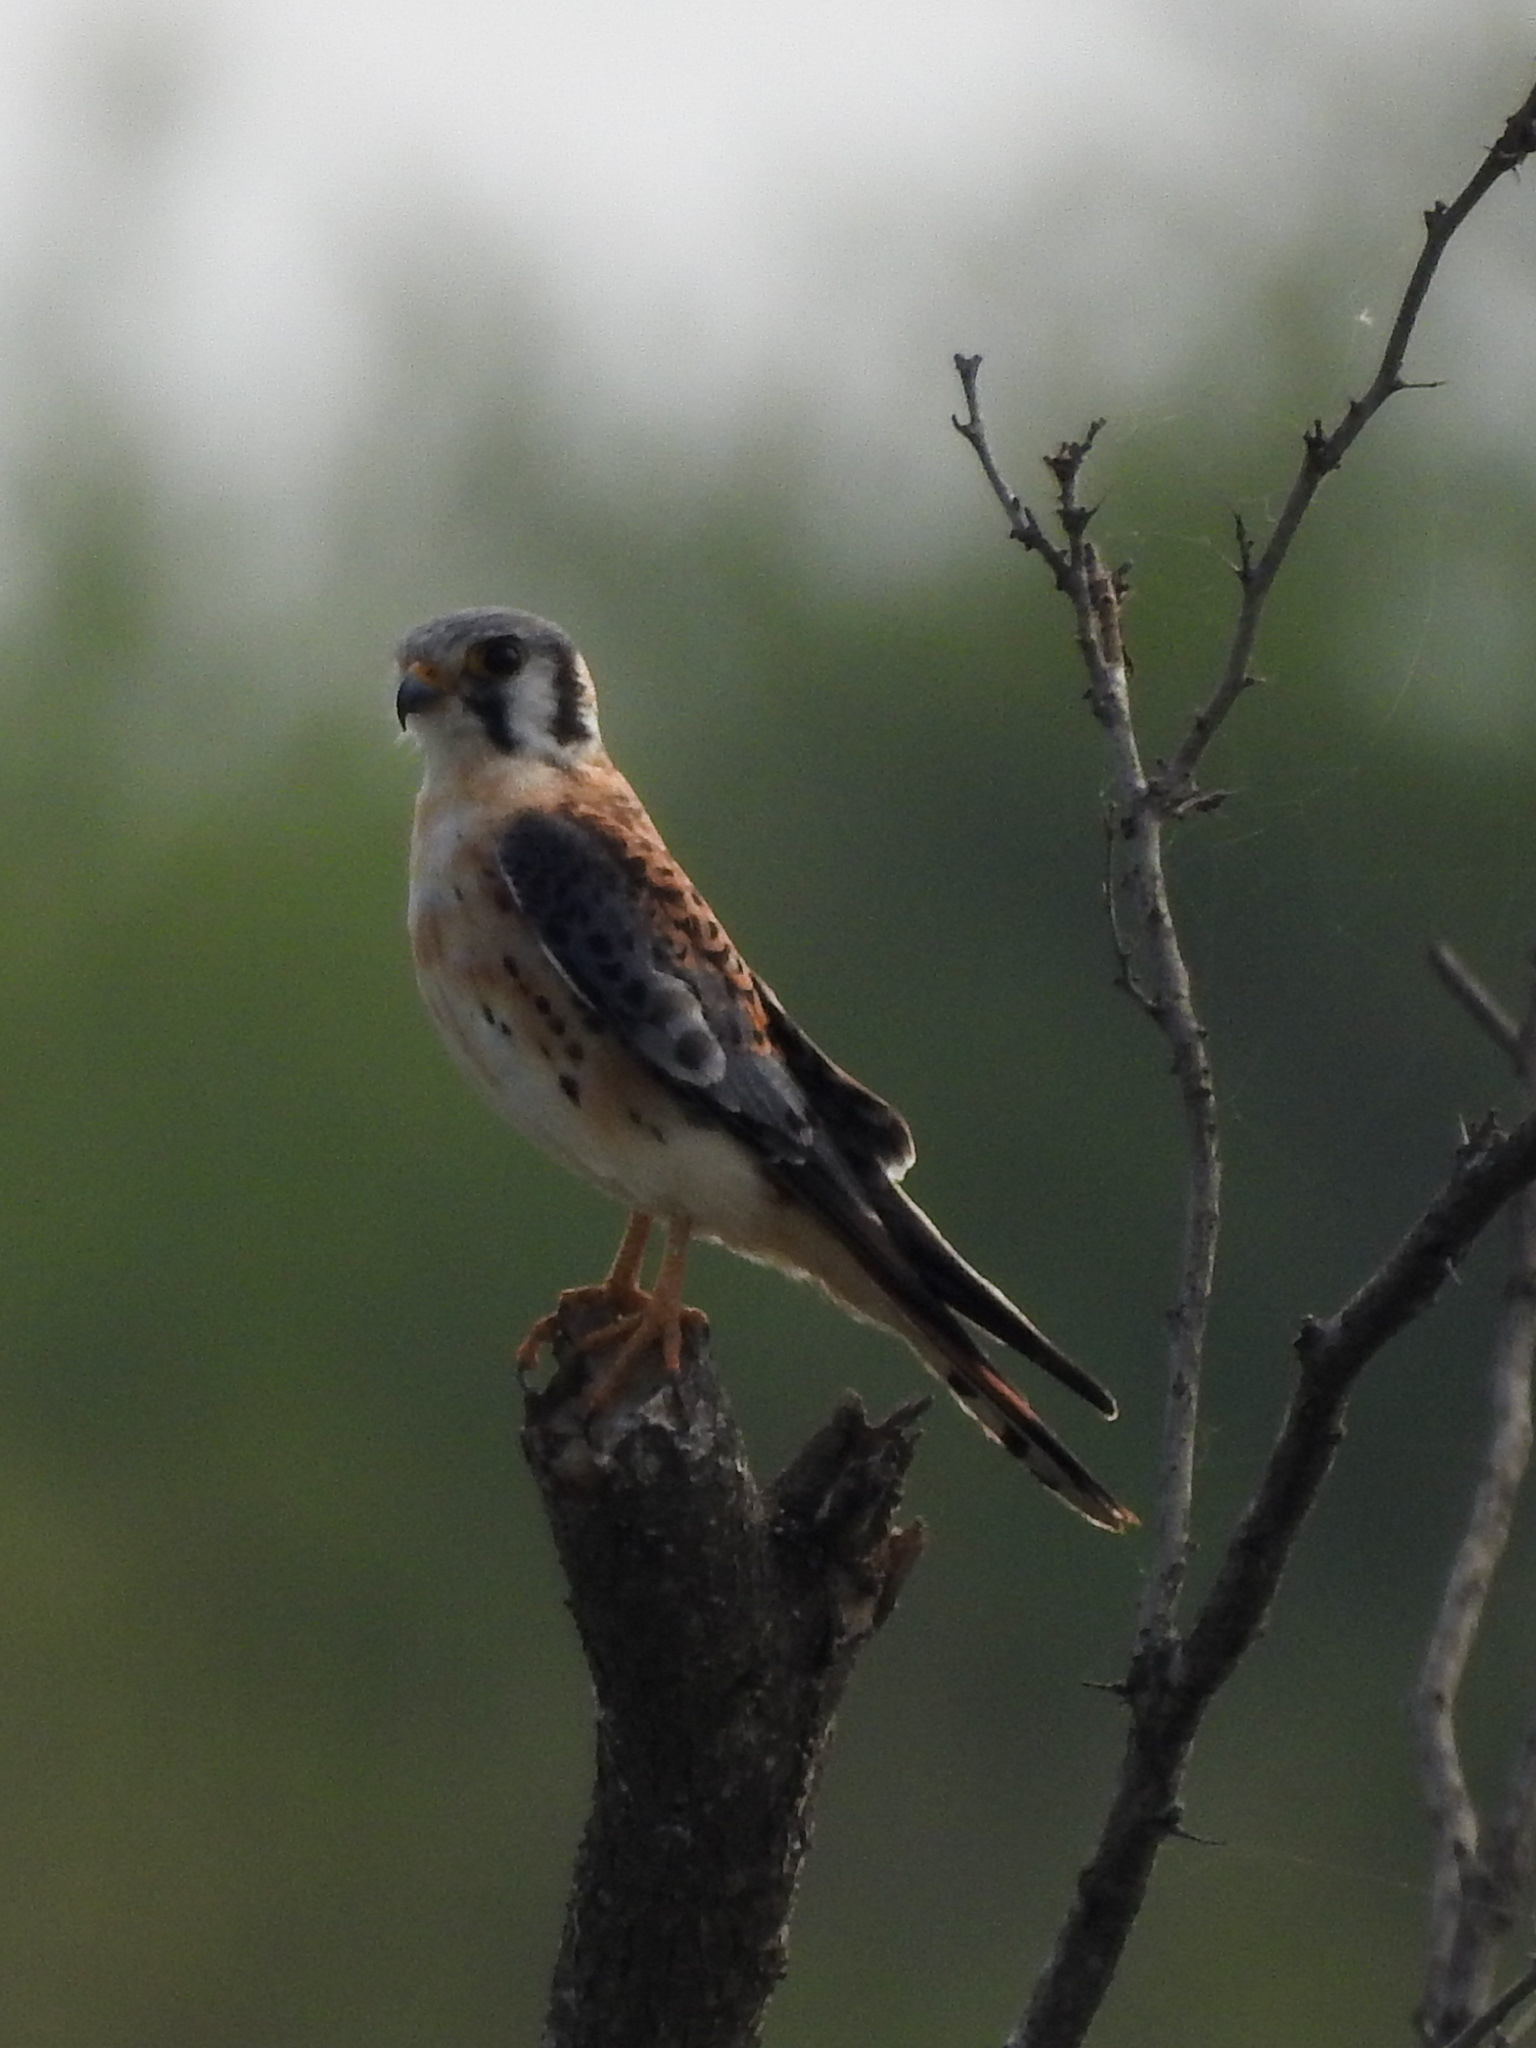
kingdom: Animalia
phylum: Chordata
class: Aves
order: Falconiformes
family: Falconidae
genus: Falco
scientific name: Falco sparverius
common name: American kestrel
